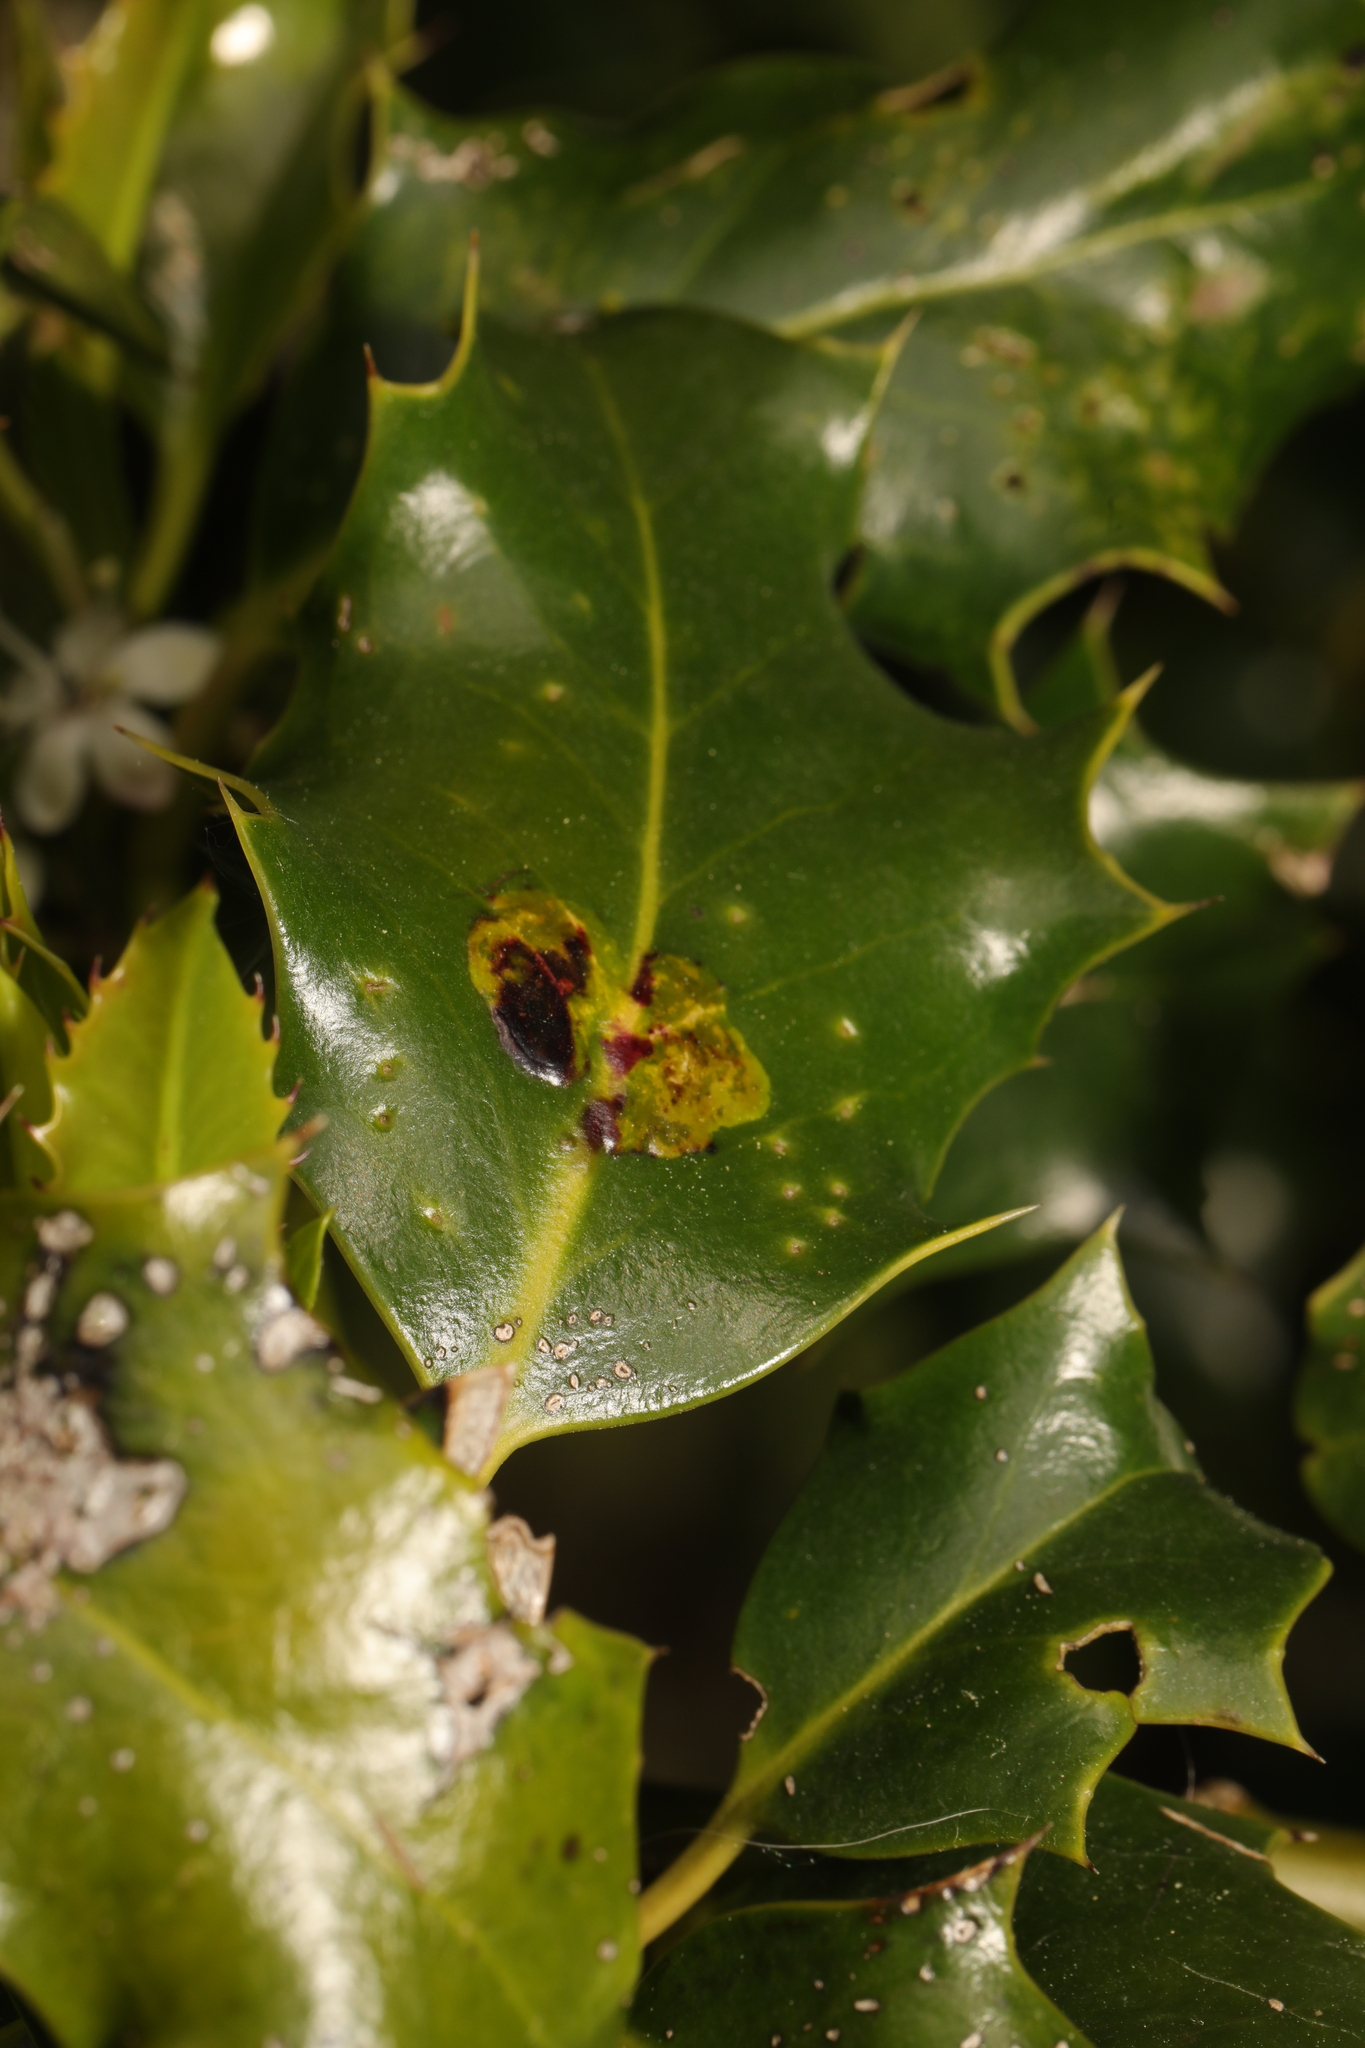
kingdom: Animalia
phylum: Arthropoda
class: Insecta
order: Diptera
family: Agromyzidae
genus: Phytomyza
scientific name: Phytomyza ilicis
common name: Holly leafminer
